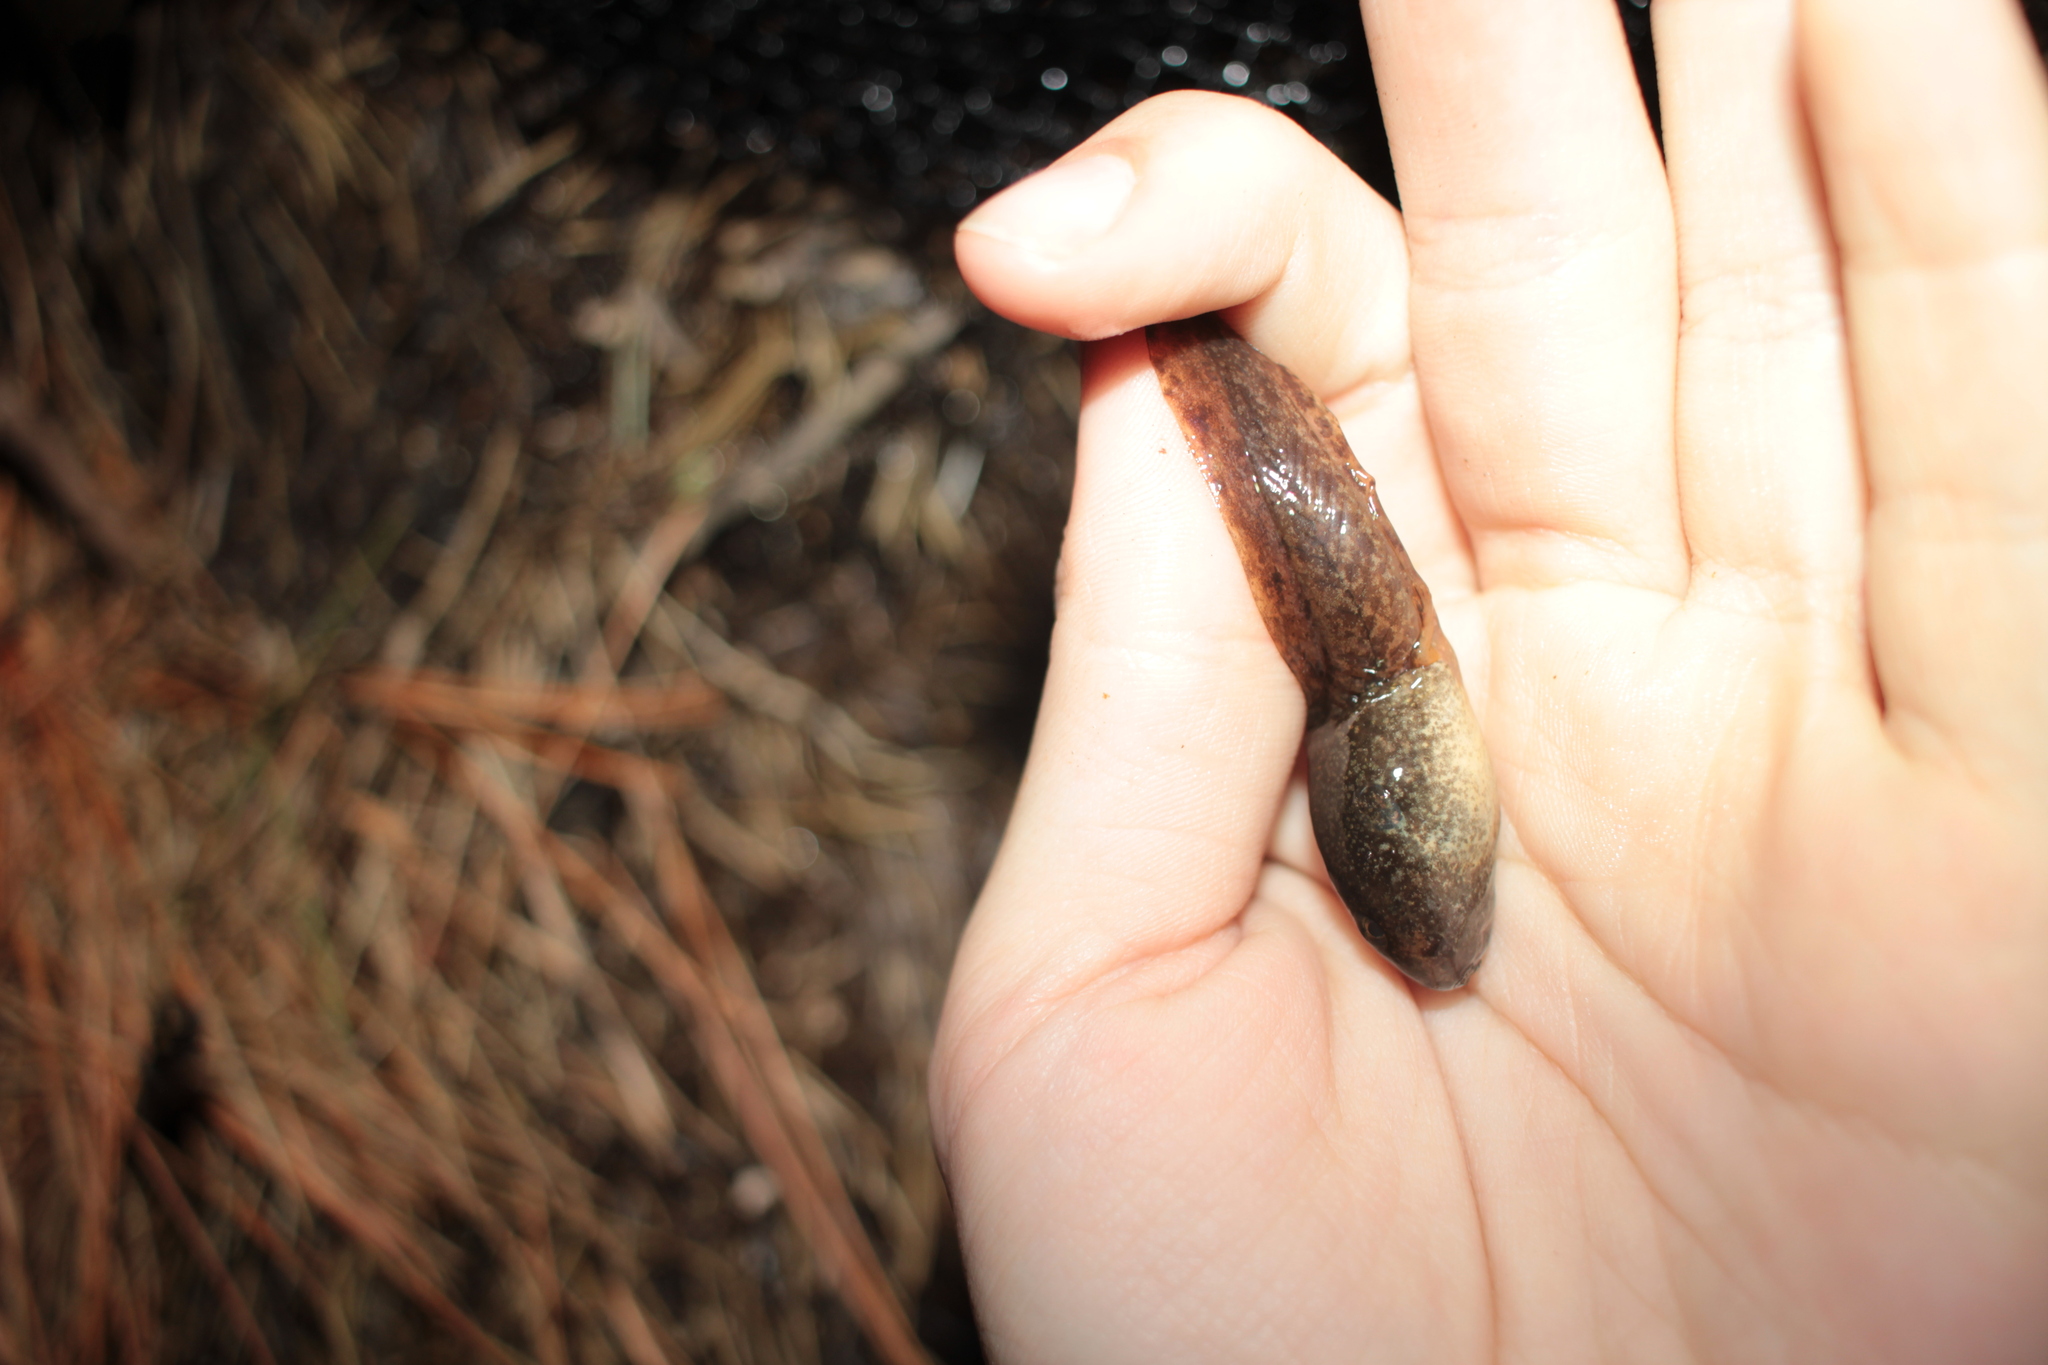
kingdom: Animalia
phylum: Chordata
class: Amphibia
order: Anura
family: Ranidae
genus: Lithobates
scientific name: Lithobates
